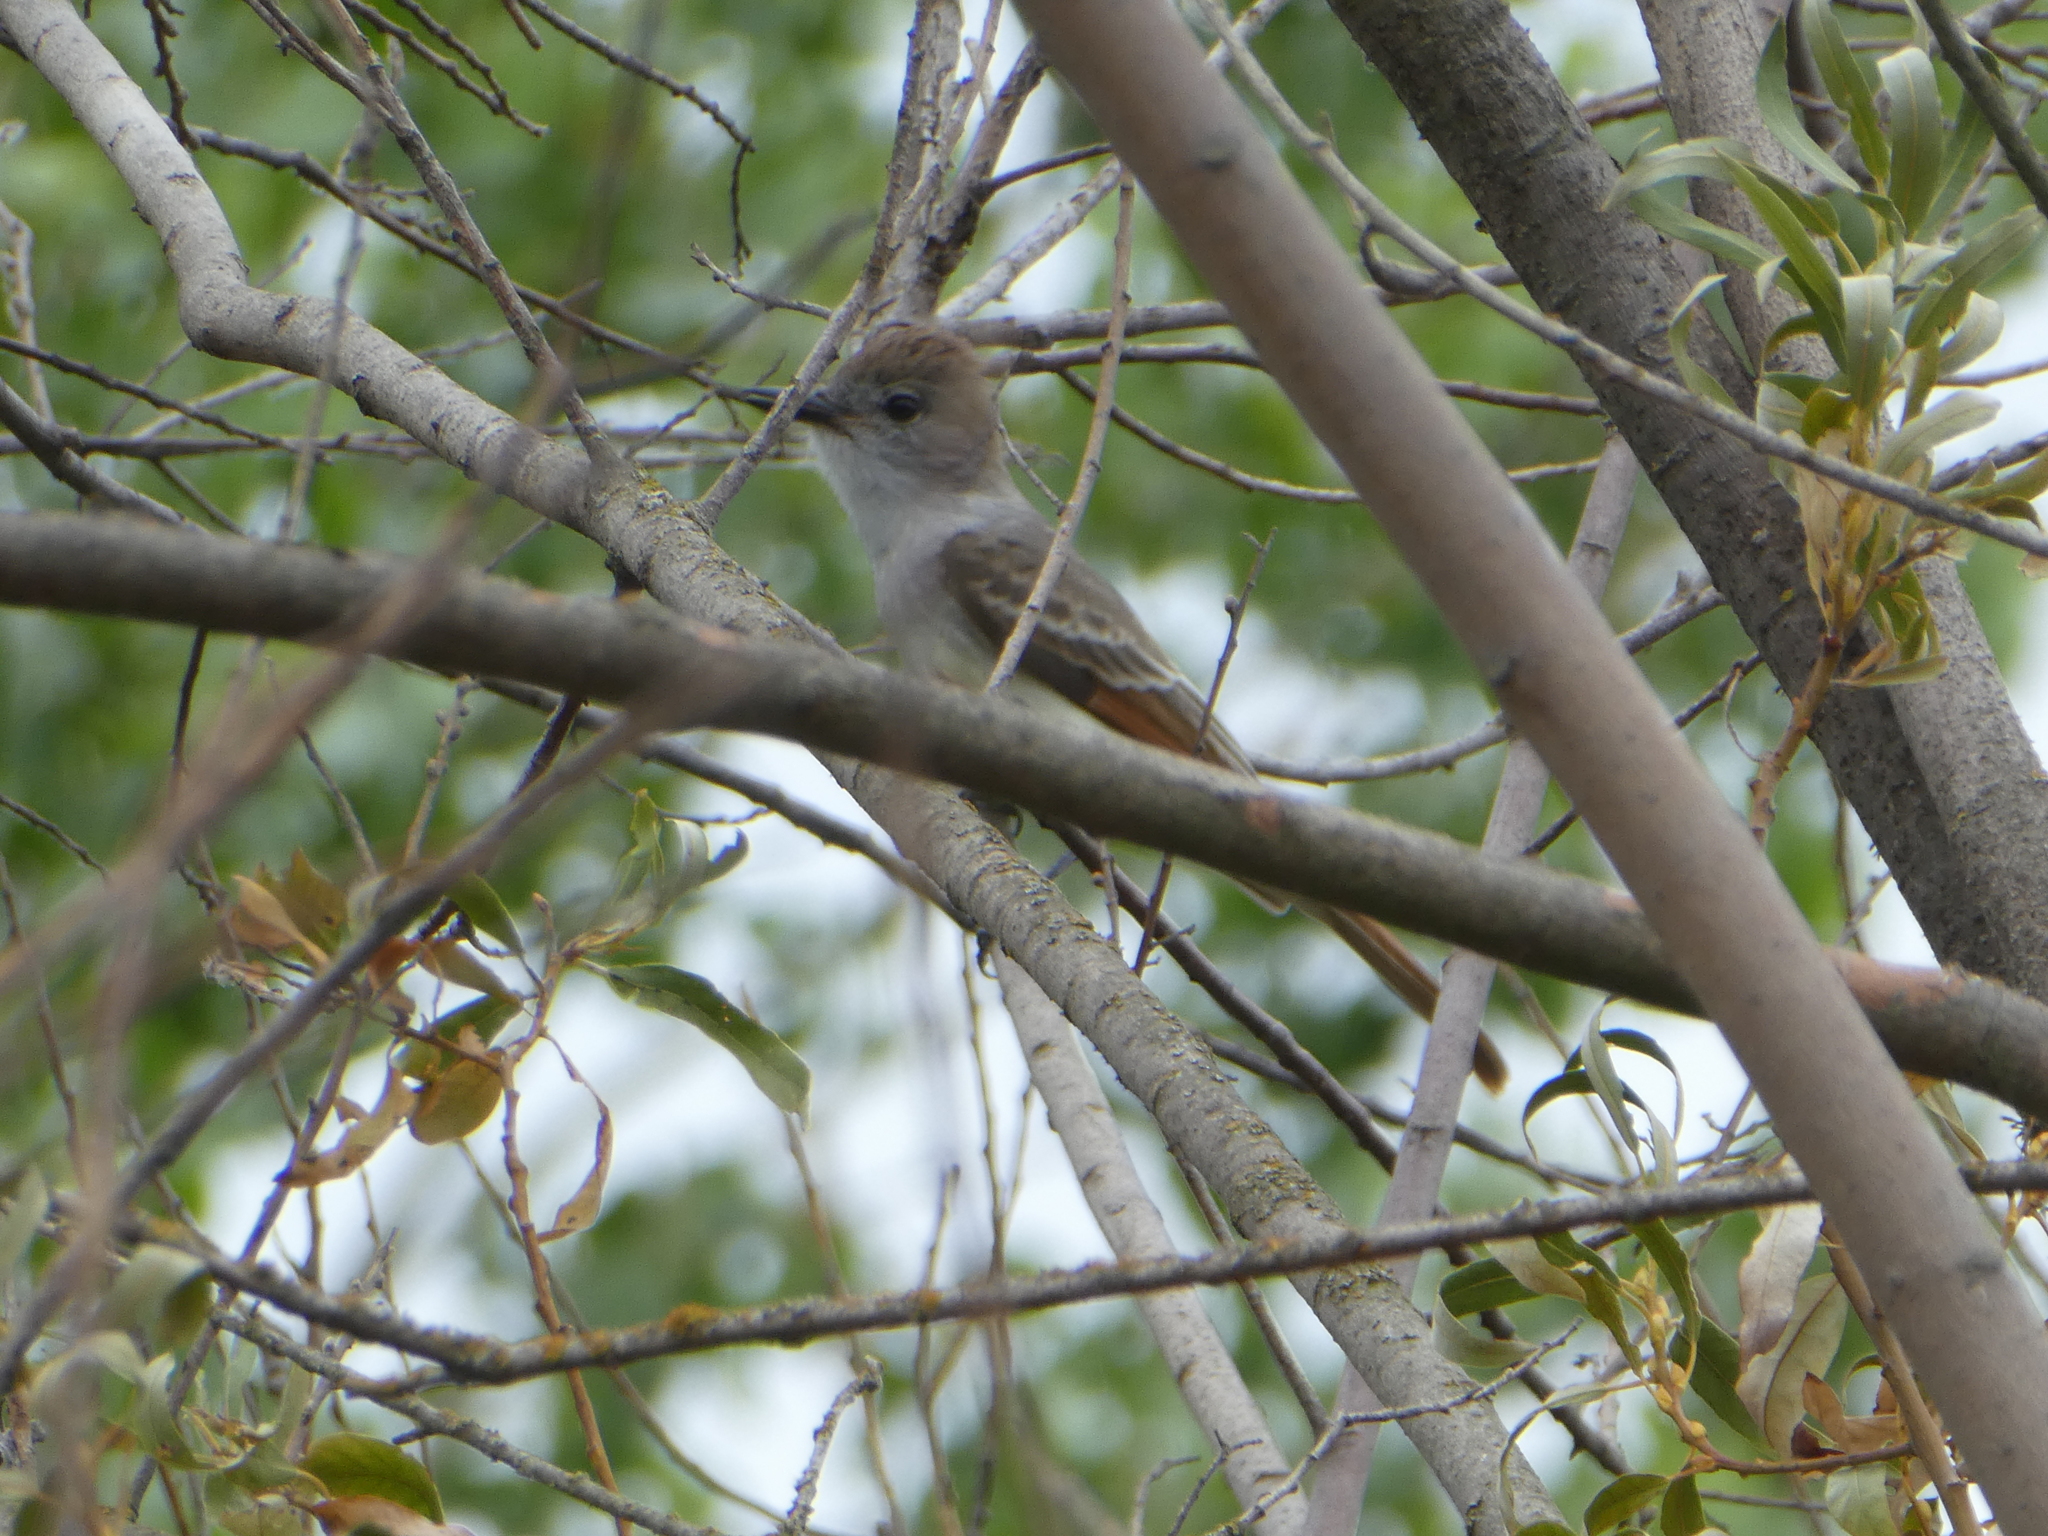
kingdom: Animalia
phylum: Chordata
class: Aves
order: Passeriformes
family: Tyrannidae
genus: Myiarchus
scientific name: Myiarchus cinerascens
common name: Ash-throated flycatcher
